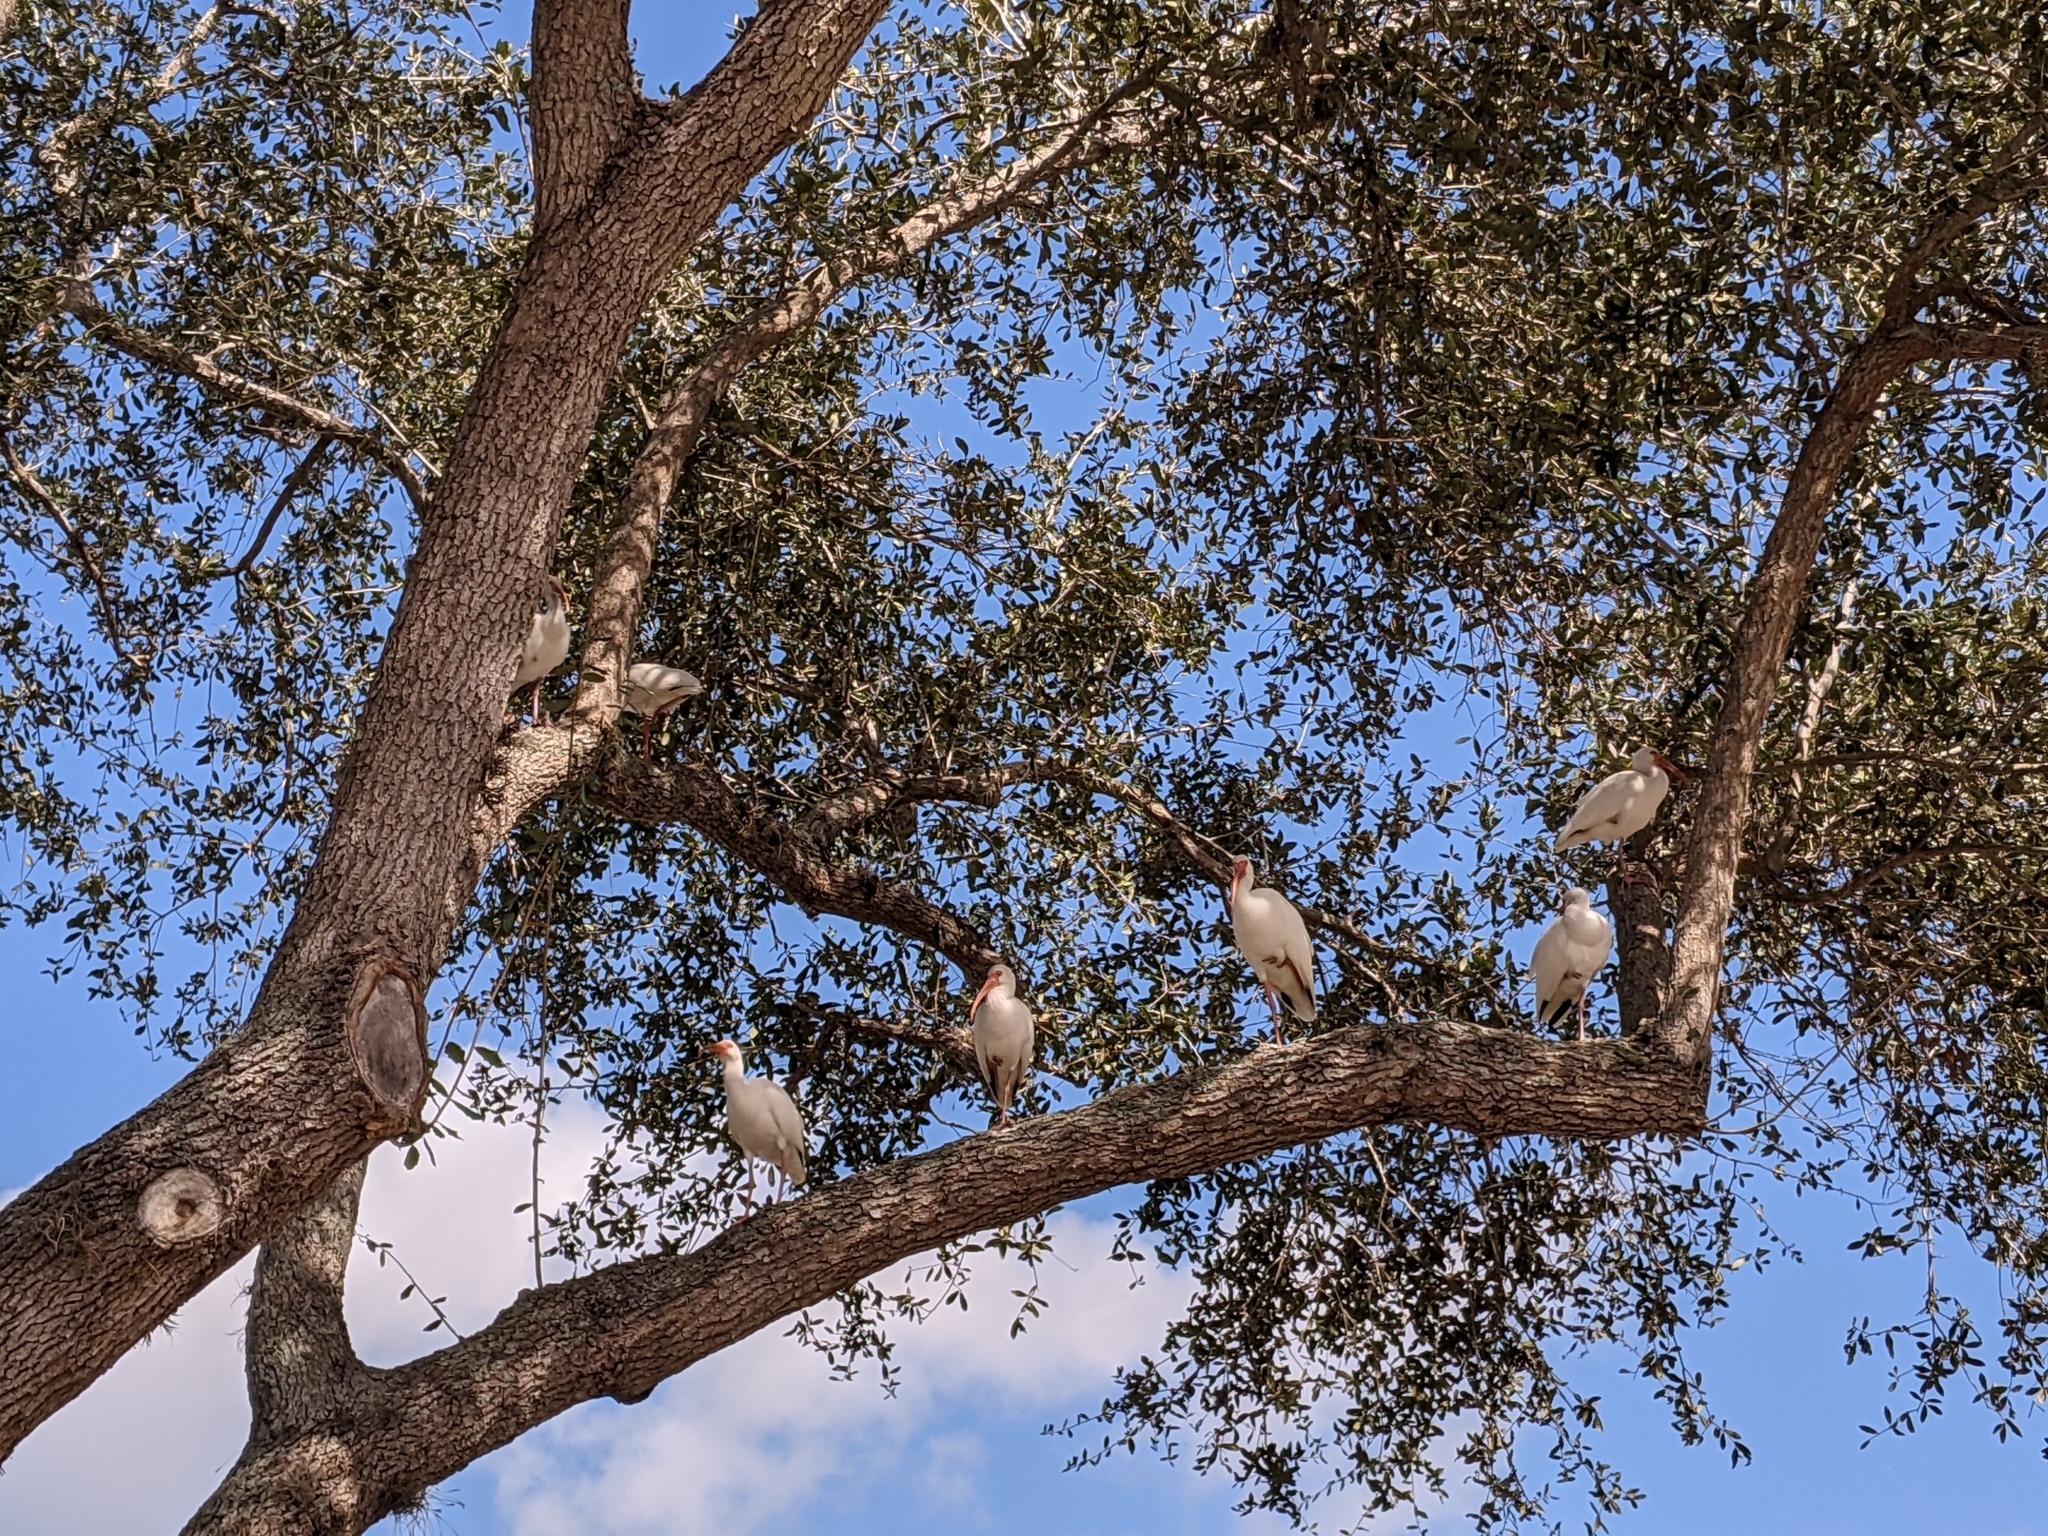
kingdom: Animalia
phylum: Chordata
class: Aves
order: Pelecaniformes
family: Threskiornithidae
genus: Eudocimus
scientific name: Eudocimus albus
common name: White ibis
